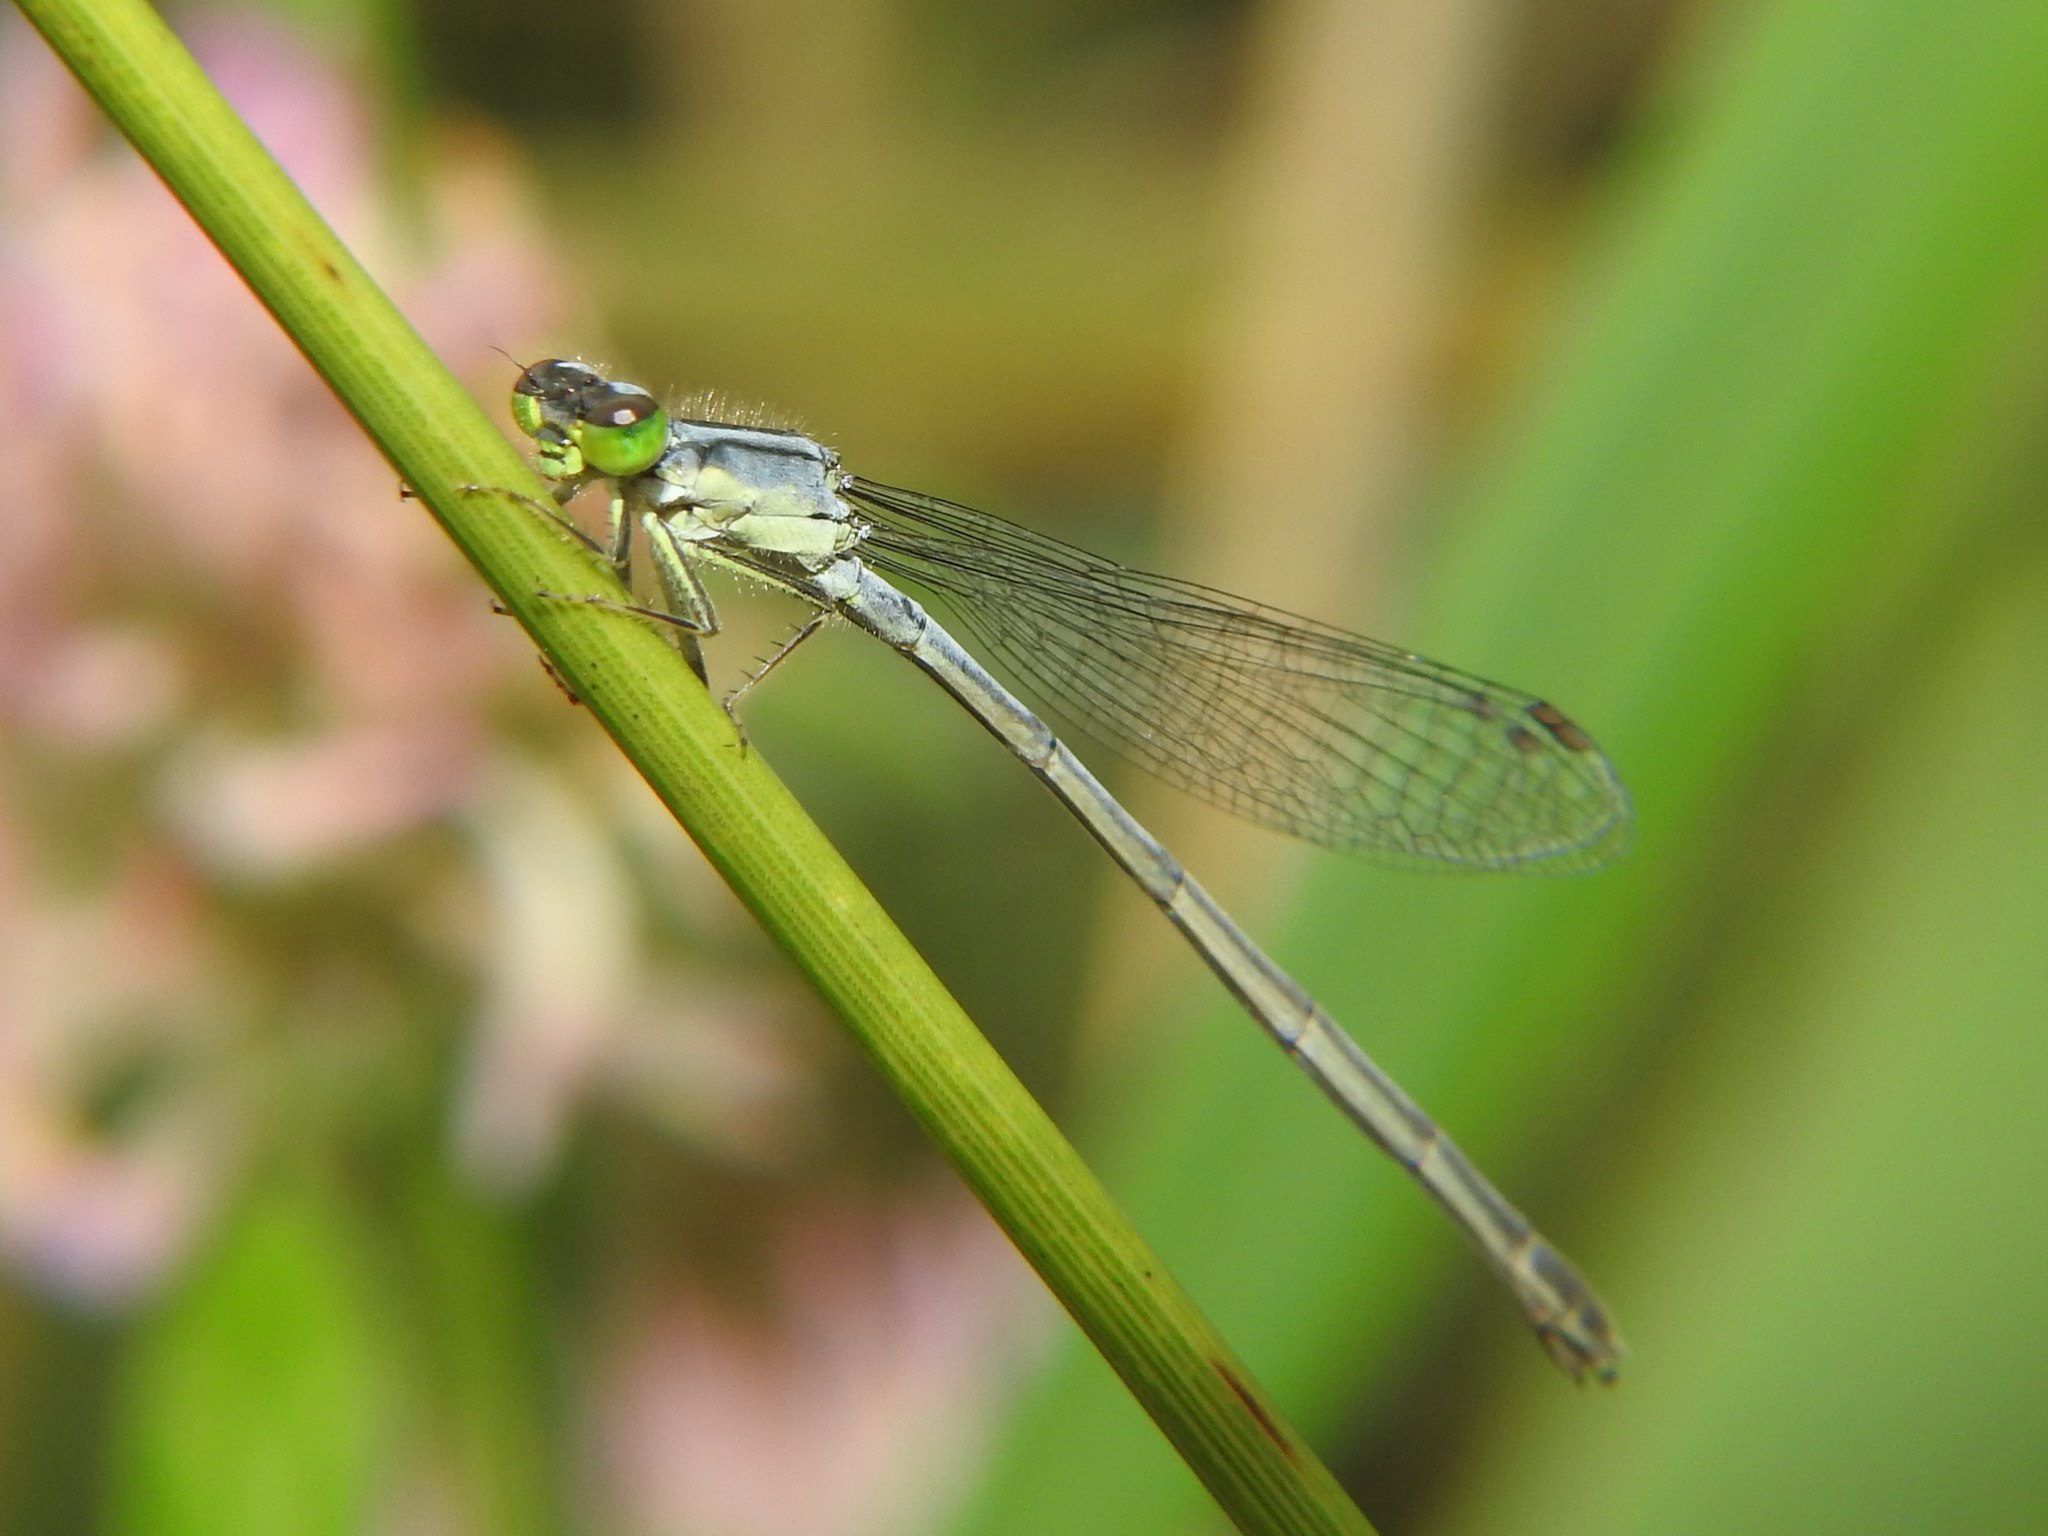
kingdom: Animalia
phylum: Arthropoda
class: Insecta
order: Odonata
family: Coenagrionidae
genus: Ischnura
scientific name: Ischnura verticalis
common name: Eastern forktail
